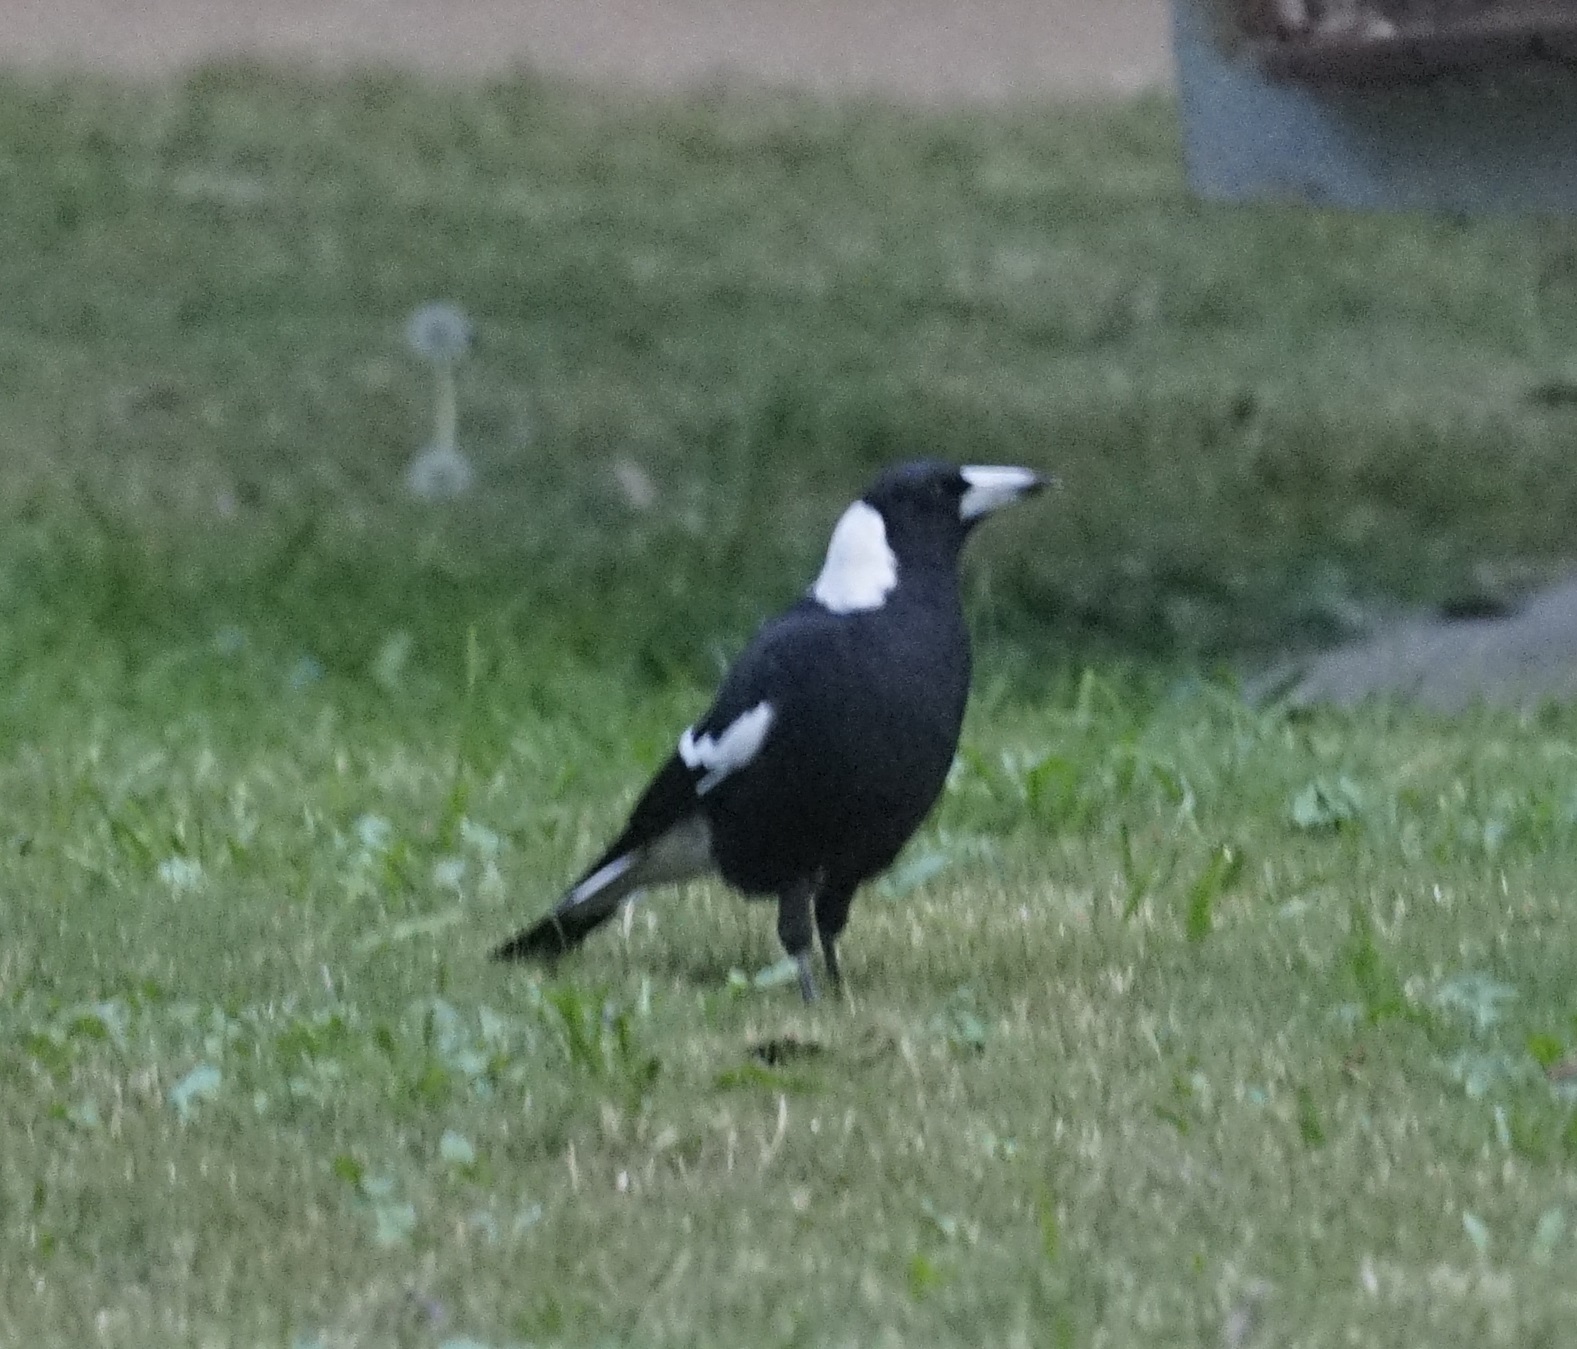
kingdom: Animalia
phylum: Chordata
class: Aves
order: Passeriformes
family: Cracticidae
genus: Gymnorhina
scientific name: Gymnorhina tibicen
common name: Australian magpie
